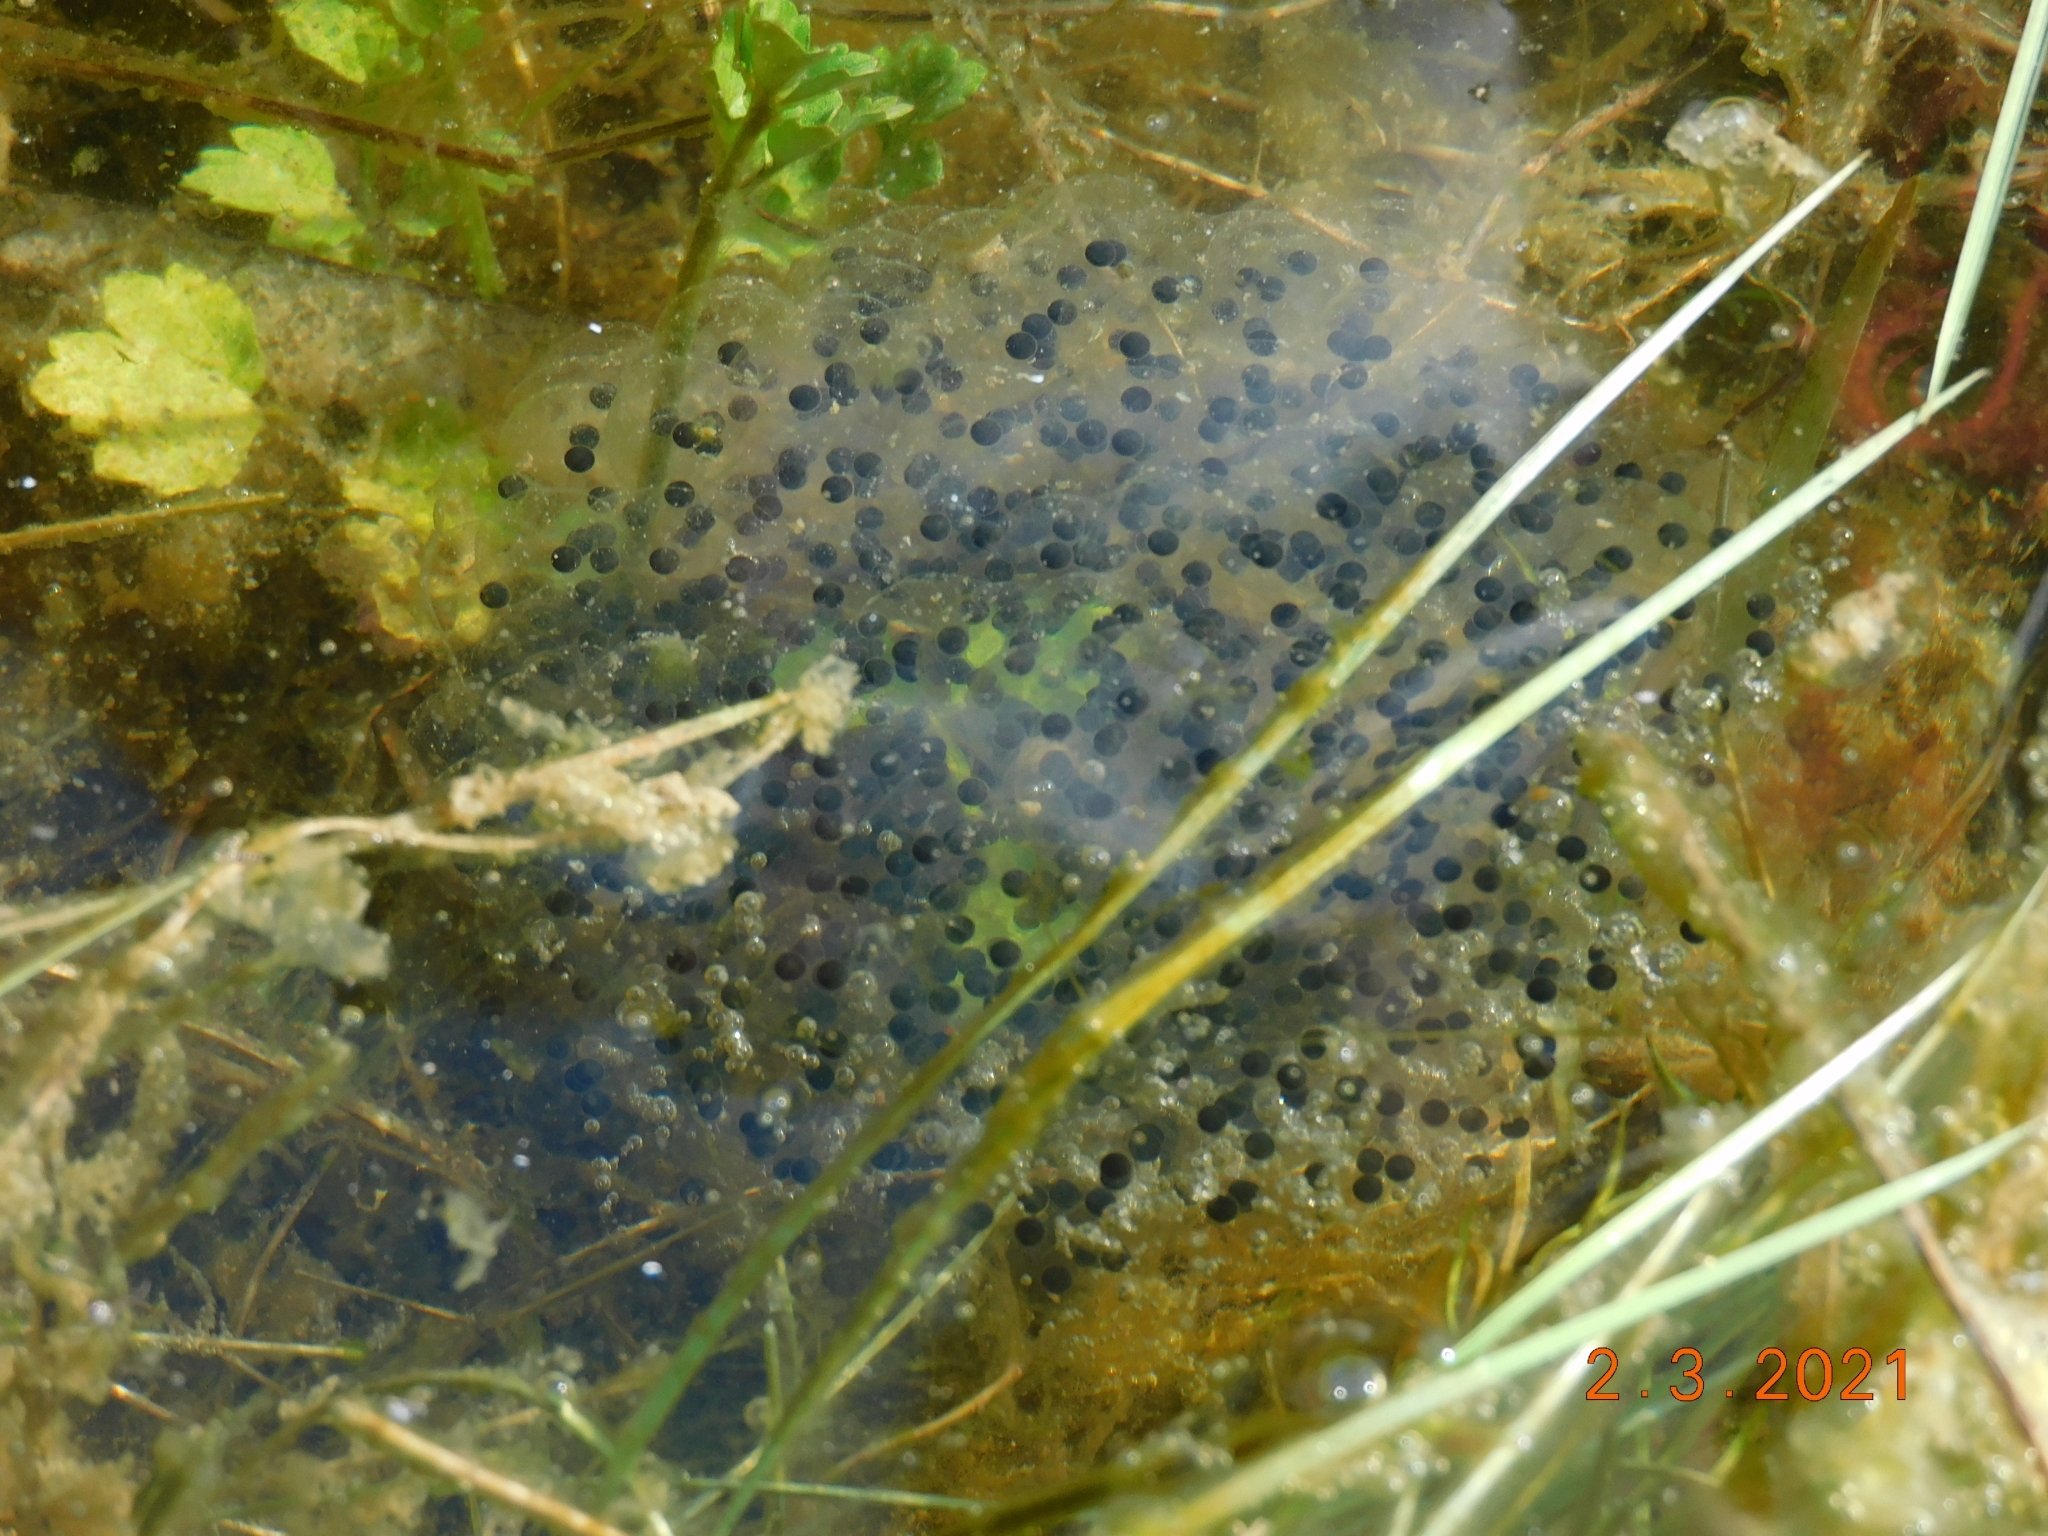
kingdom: Animalia
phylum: Chordata
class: Amphibia
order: Anura
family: Ranidae
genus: Rana
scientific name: Rana dalmatina
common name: Agile frog
